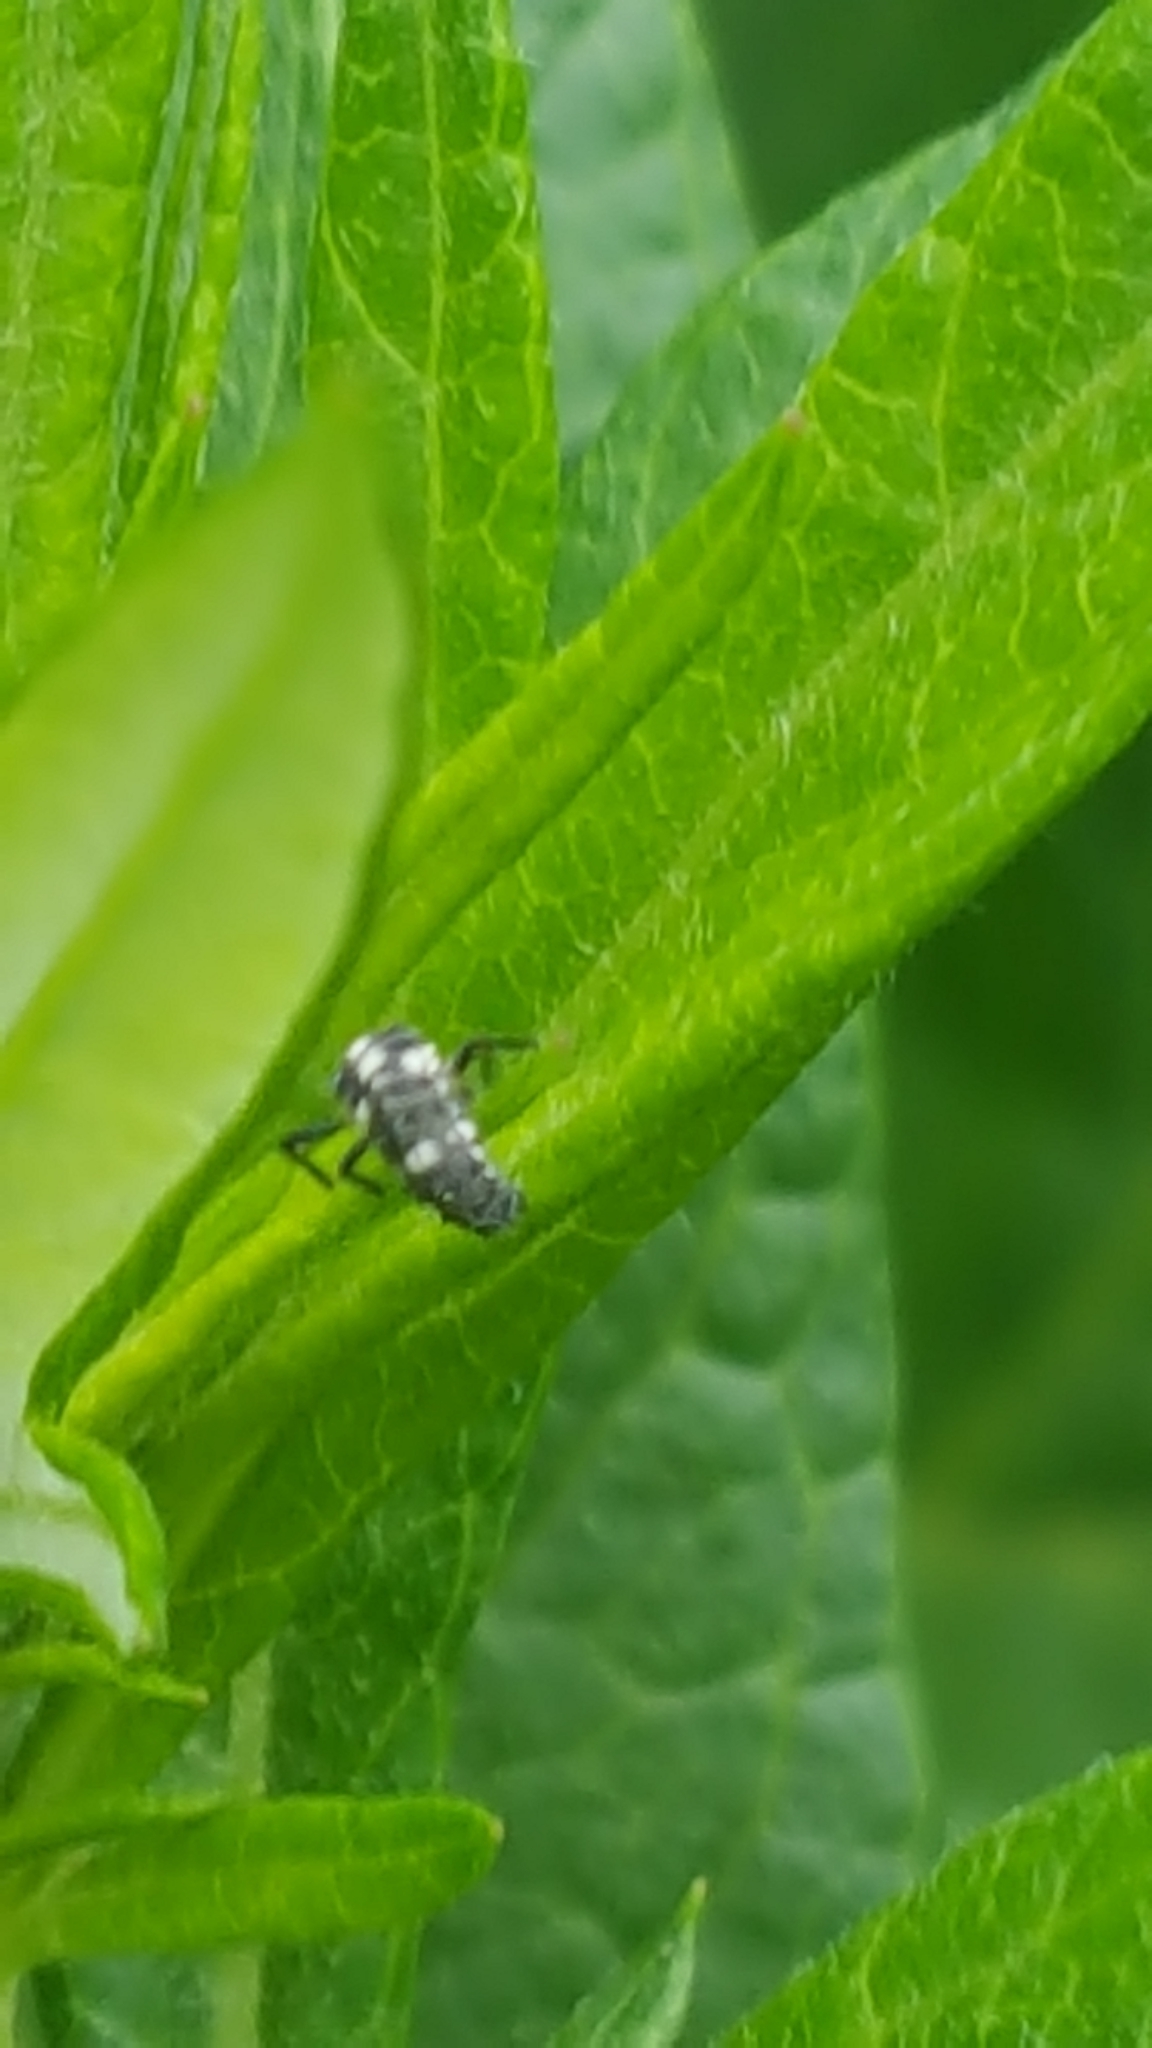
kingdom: Animalia
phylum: Arthropoda
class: Insecta
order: Coleoptera
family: Coccinellidae
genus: Propylaea
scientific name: Propylaea quatuordecimpunctata
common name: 14-spotted ladybird beetle
